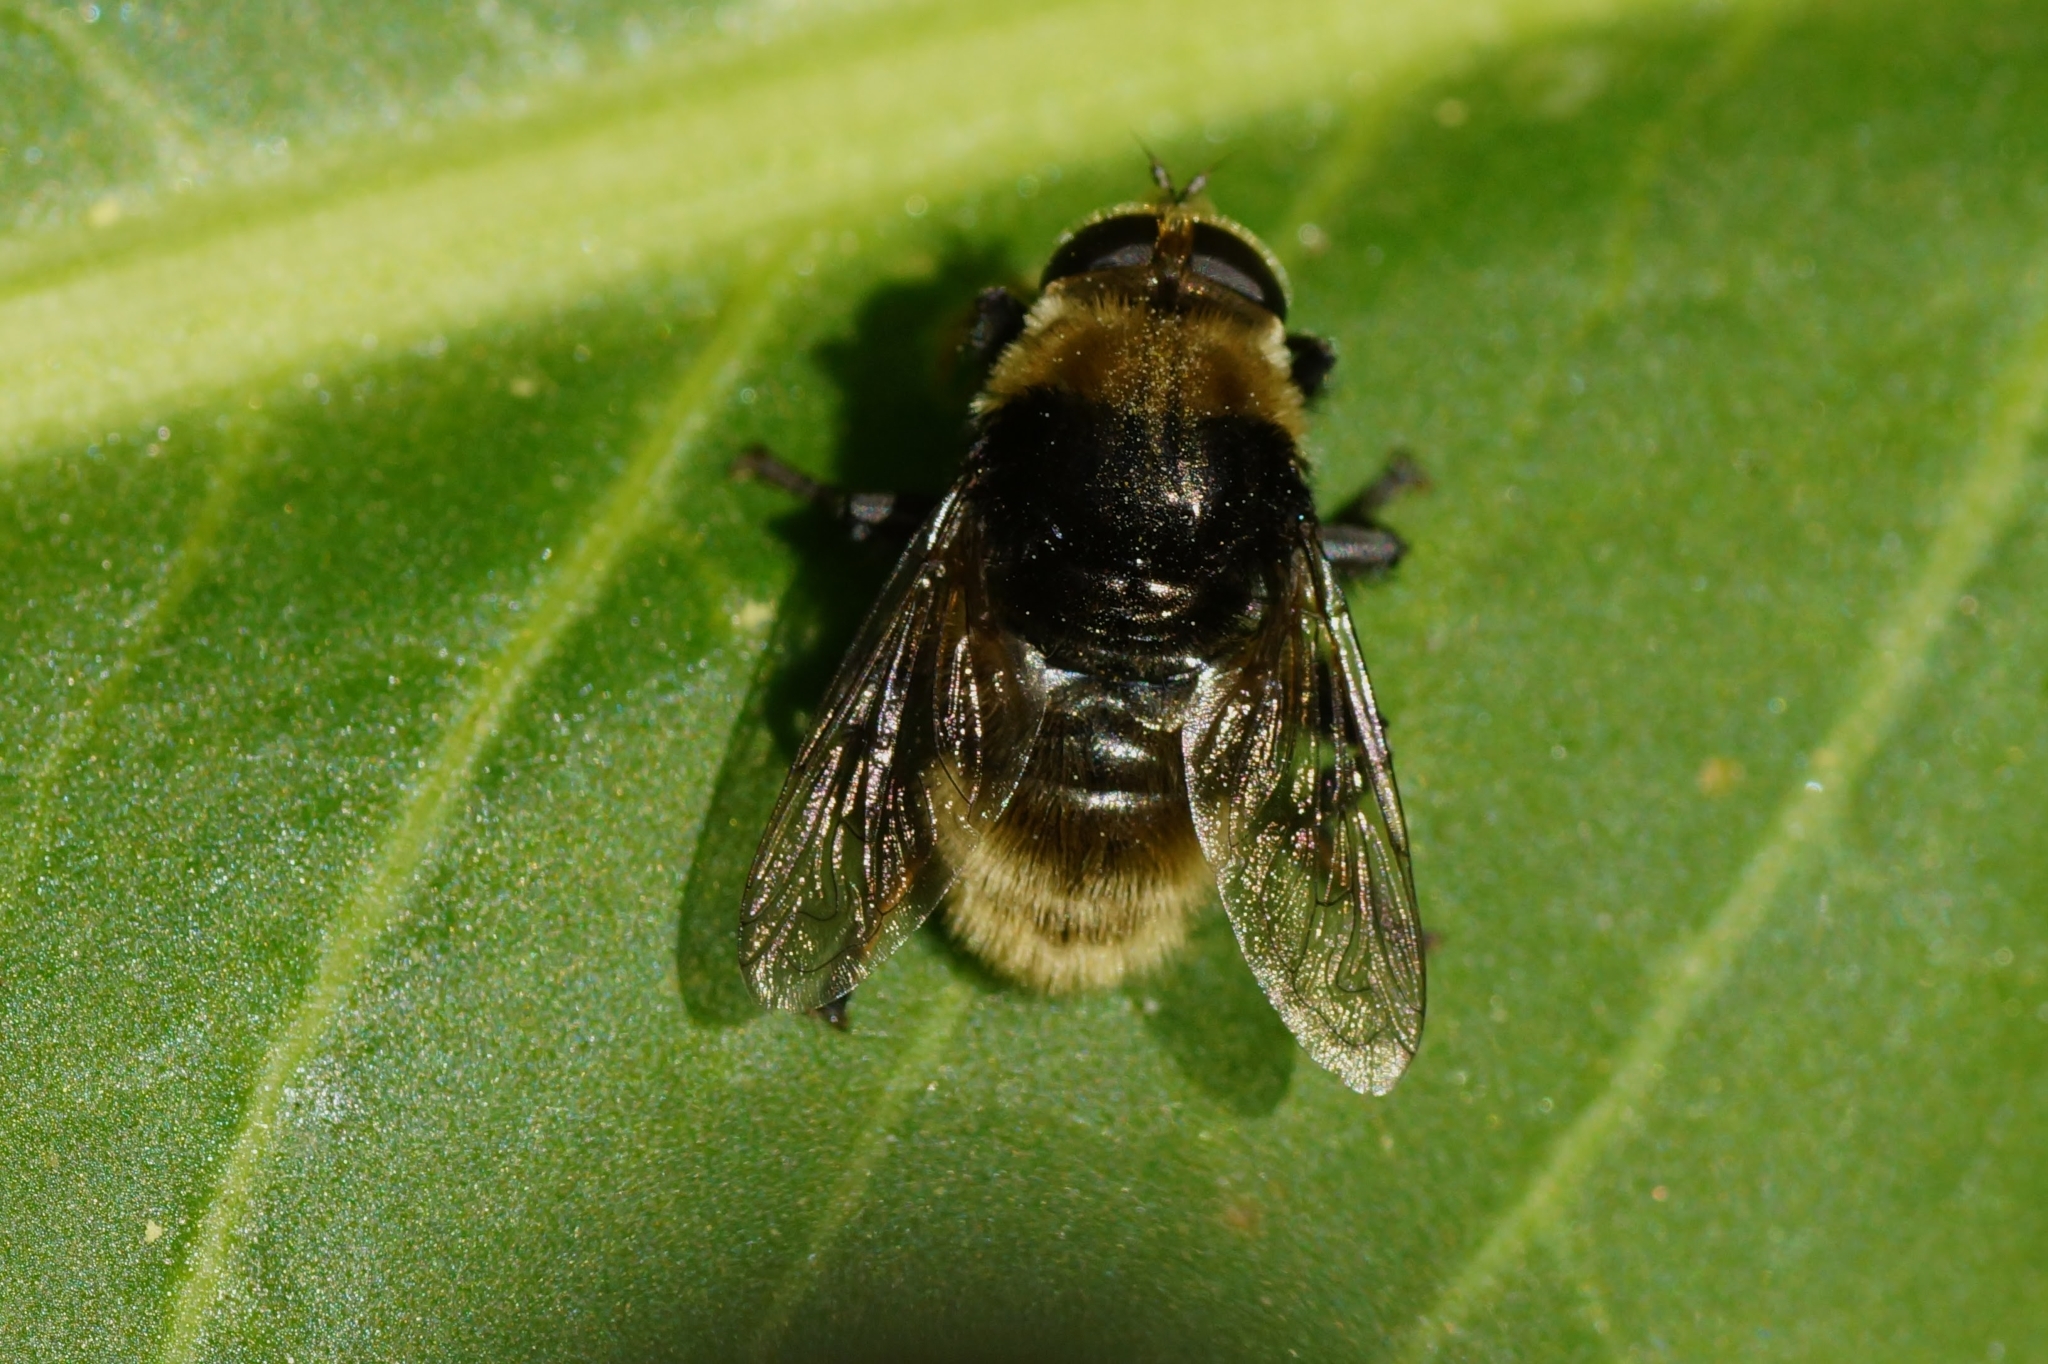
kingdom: Animalia
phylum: Arthropoda
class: Insecta
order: Diptera
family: Syrphidae
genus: Merodon
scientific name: Merodon equestris
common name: Greater bulb-fly
